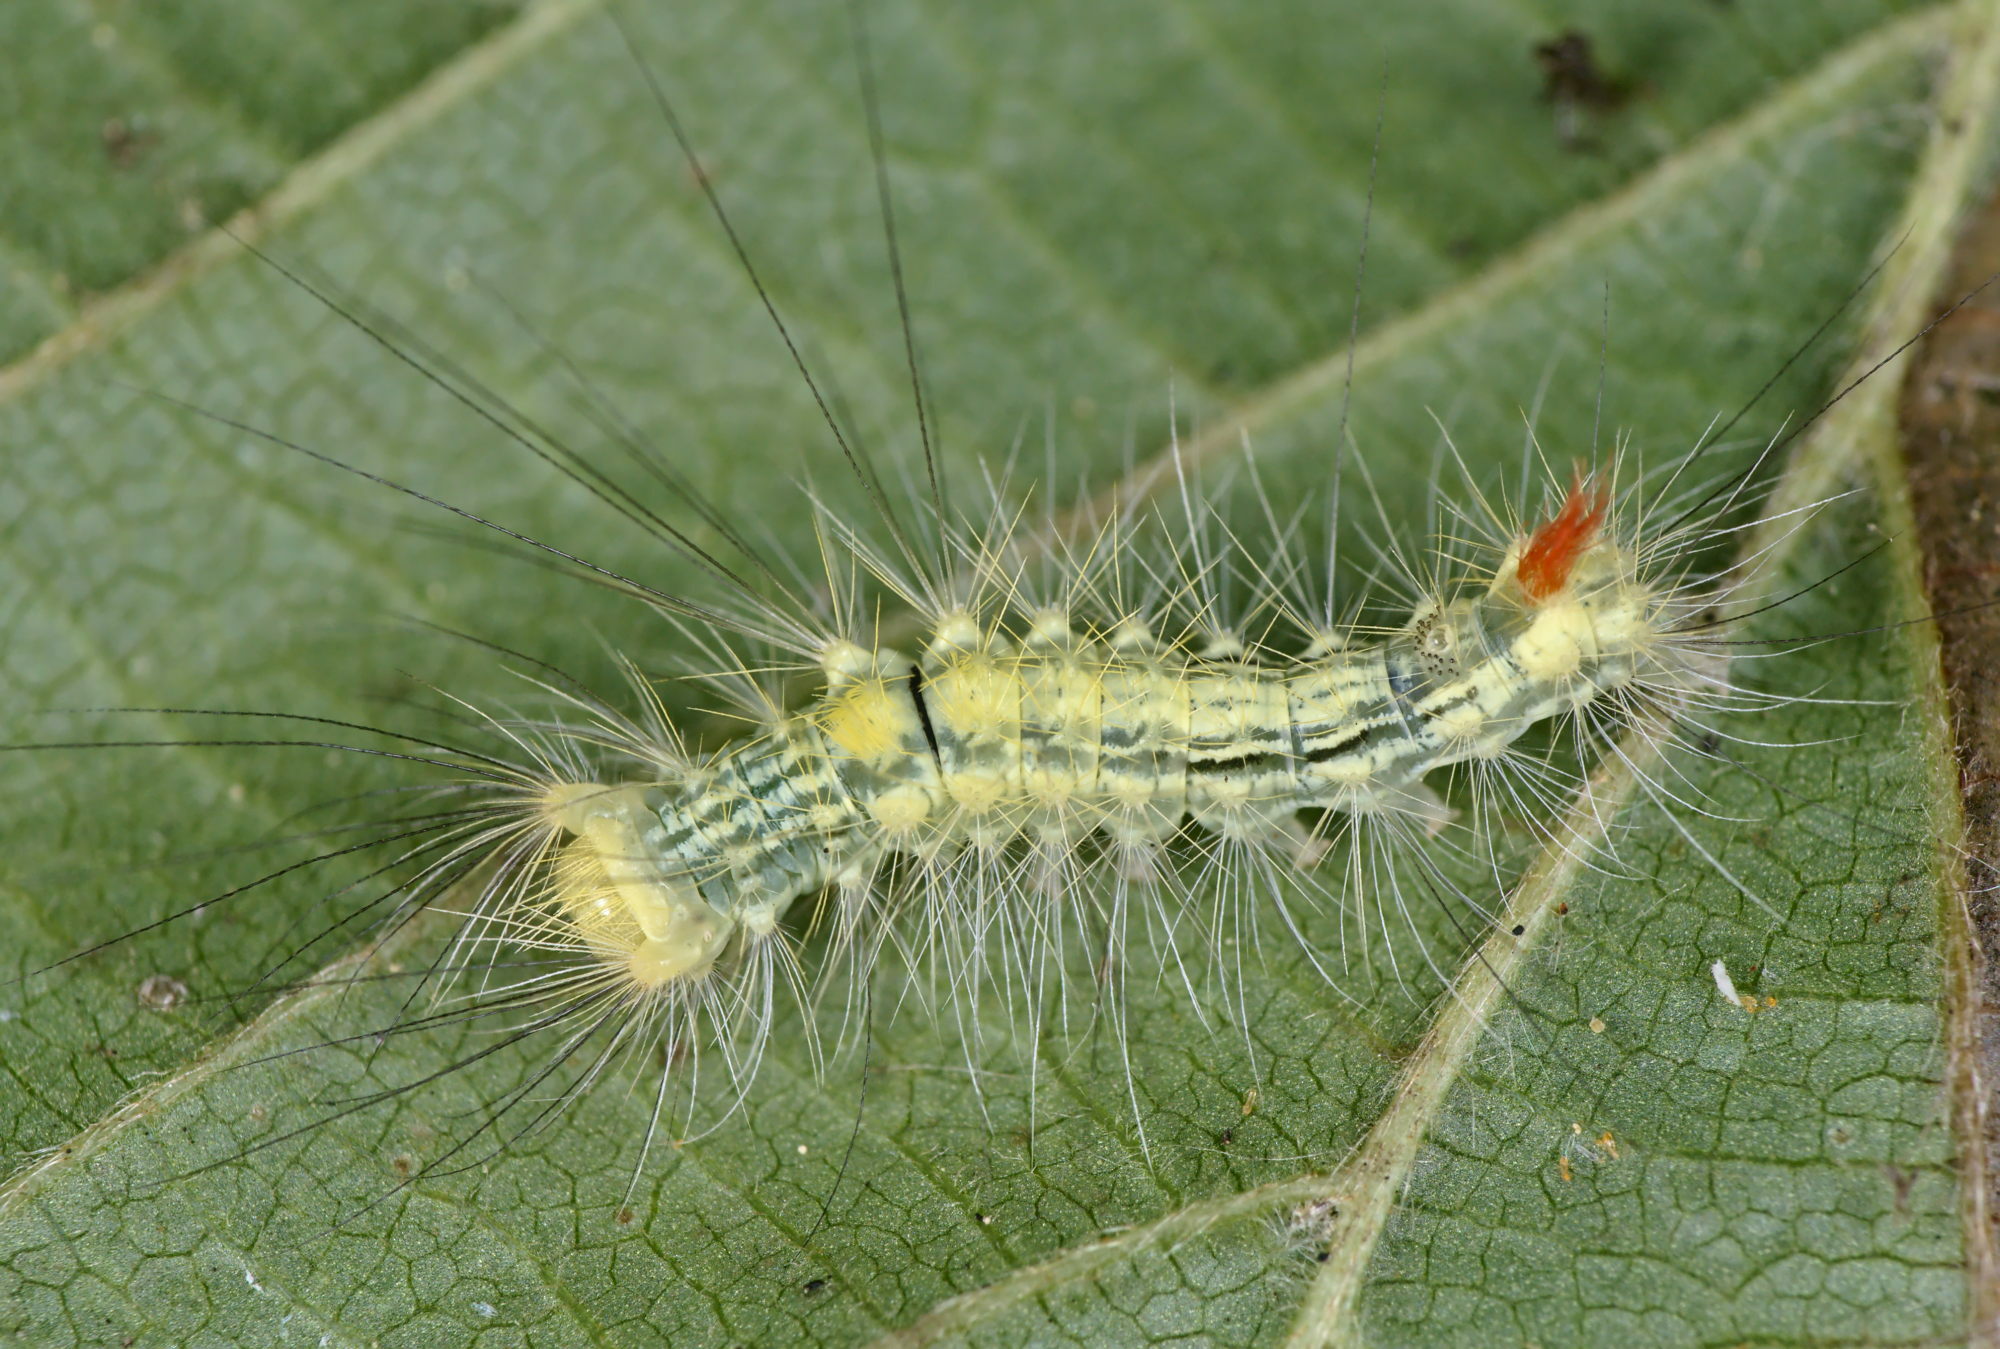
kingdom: Animalia
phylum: Arthropoda
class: Insecta
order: Lepidoptera
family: Erebidae
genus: Calliteara
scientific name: Calliteara pudibunda
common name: Pale tussock
